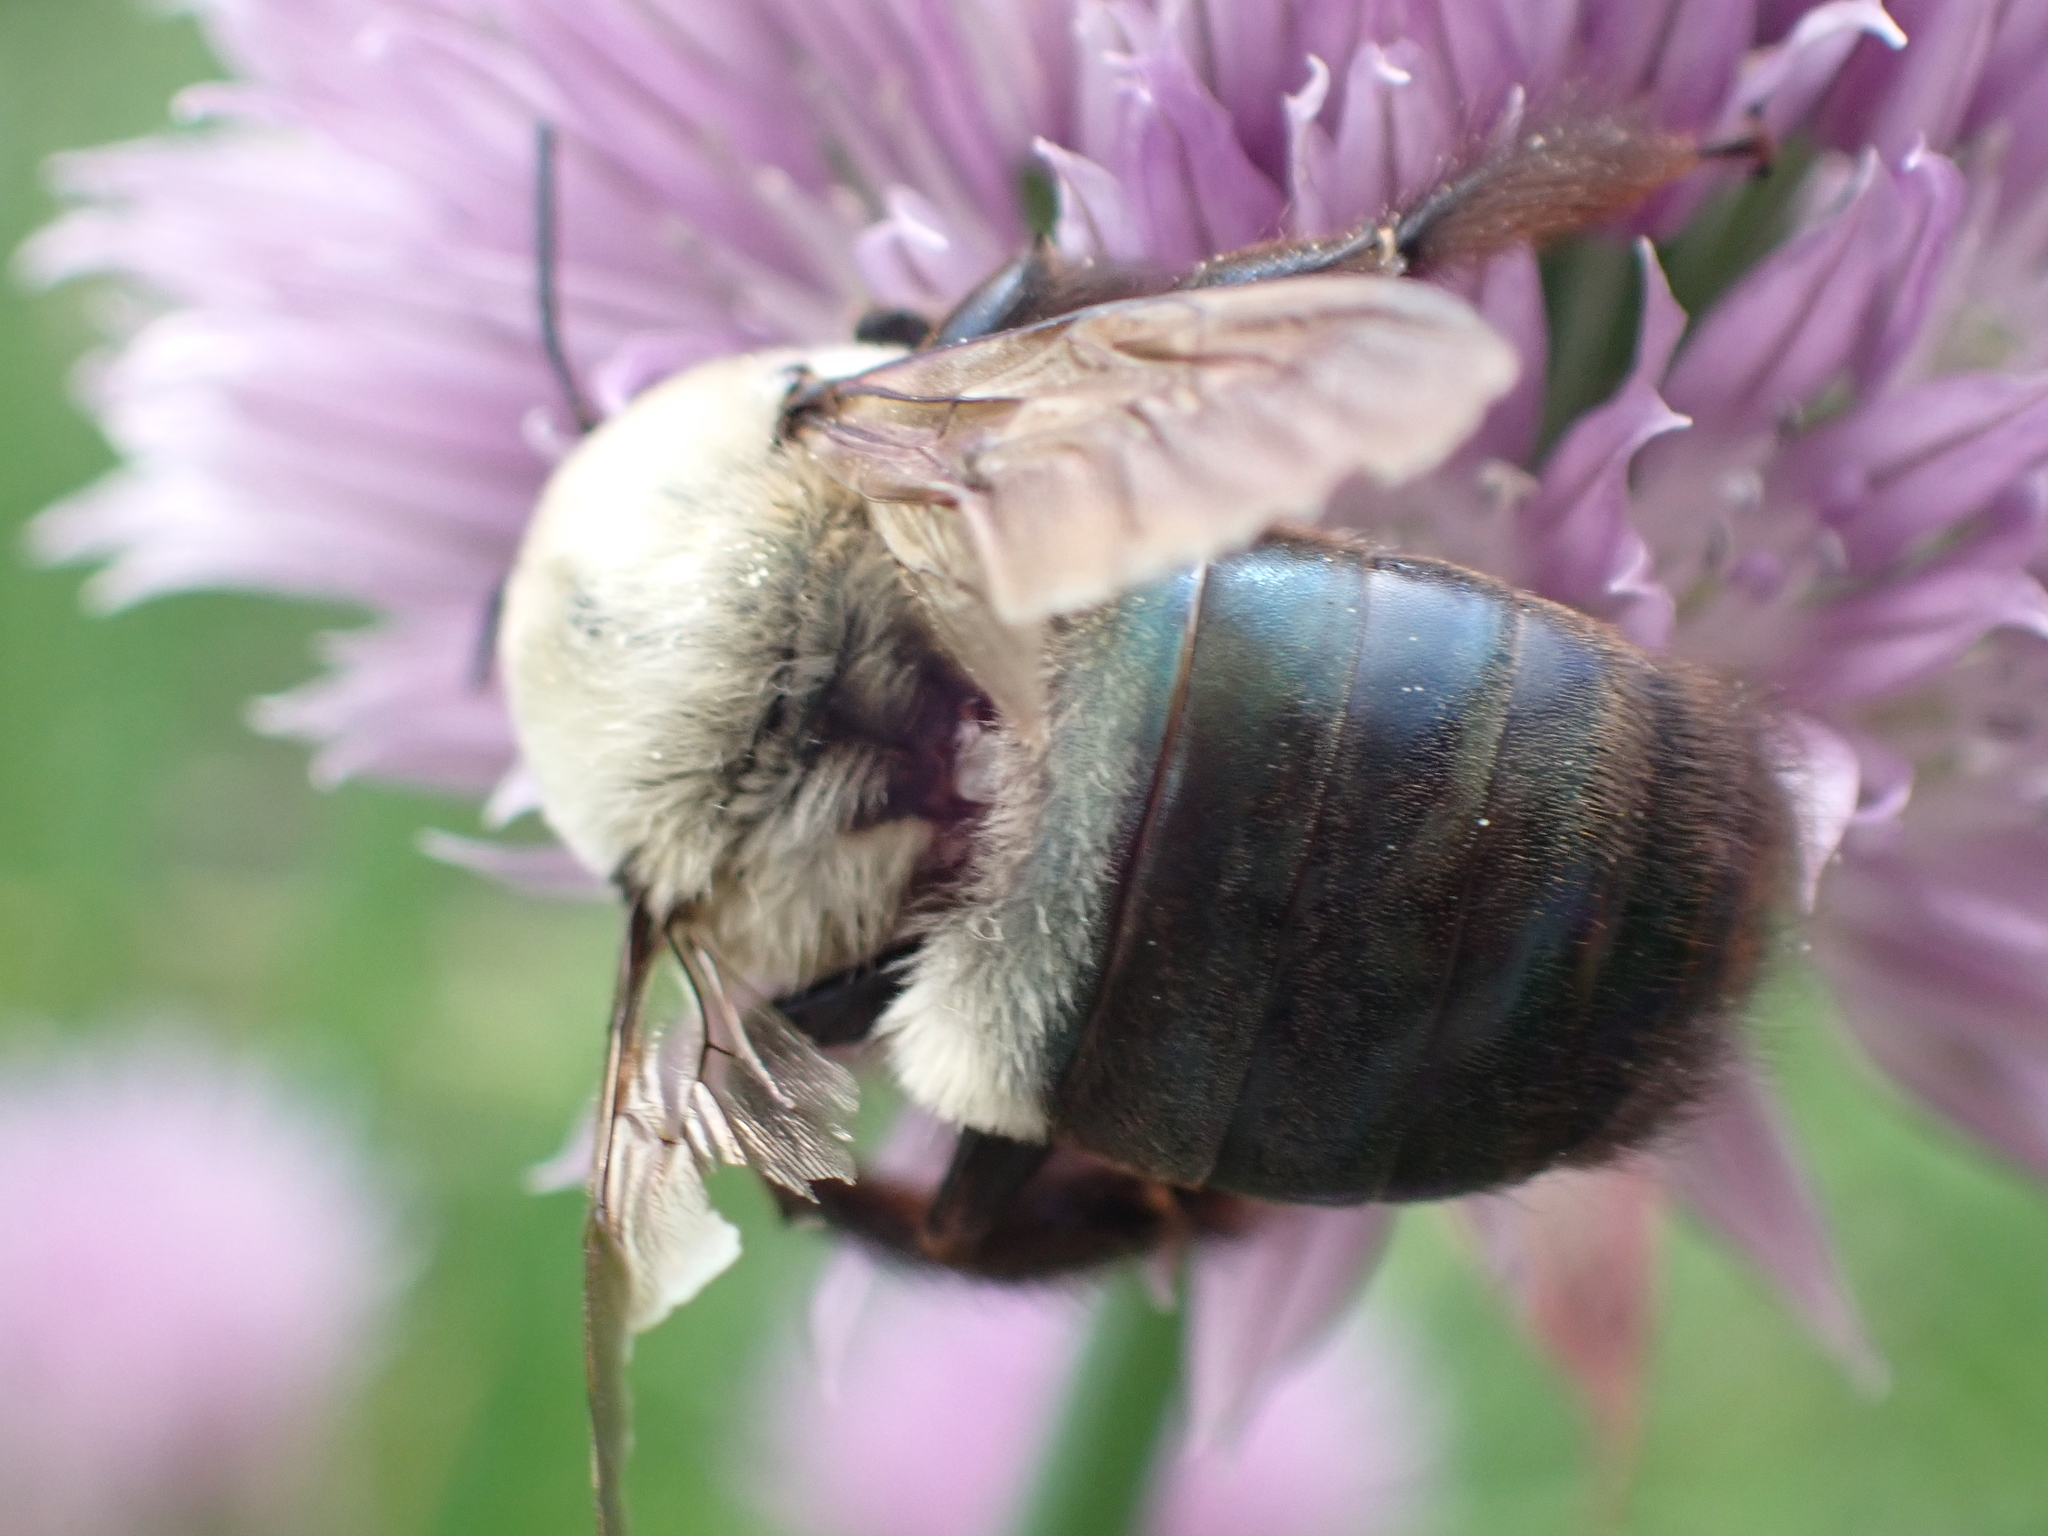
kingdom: Animalia
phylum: Arthropoda
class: Insecta
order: Hymenoptera
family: Apidae
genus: Xylocopa
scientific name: Xylocopa virginica
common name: Carpenter bee
